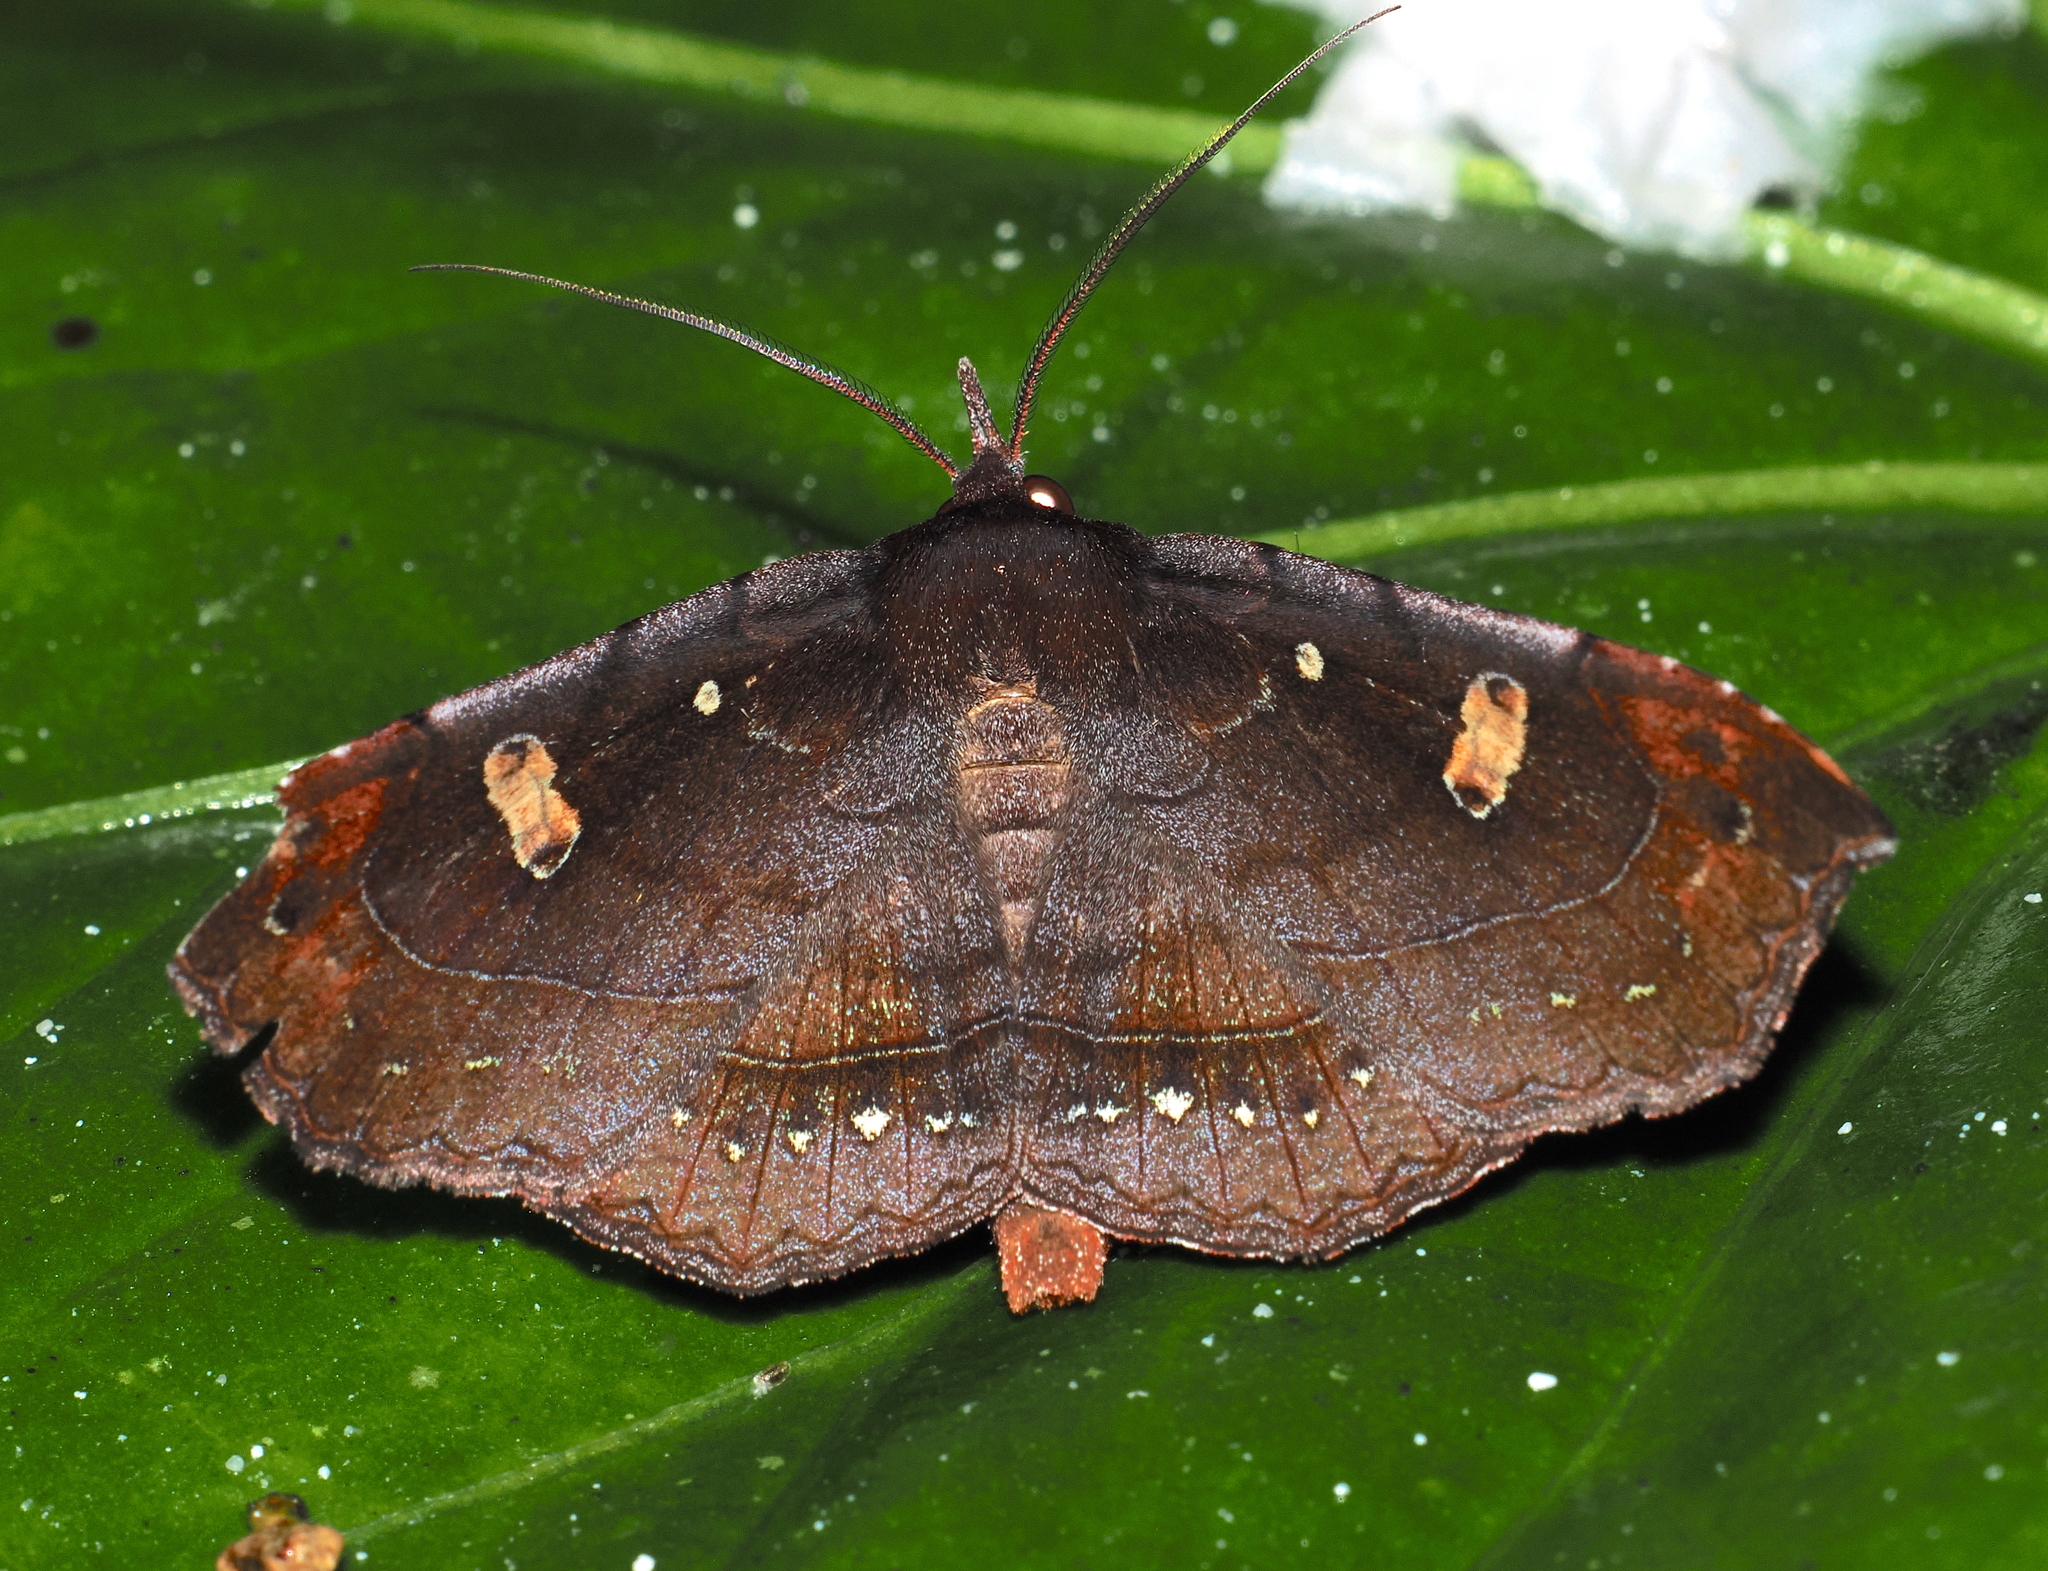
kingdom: Animalia
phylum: Arthropoda
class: Insecta
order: Lepidoptera
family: Erebidae
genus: Azeta
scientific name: Azeta rufescens
